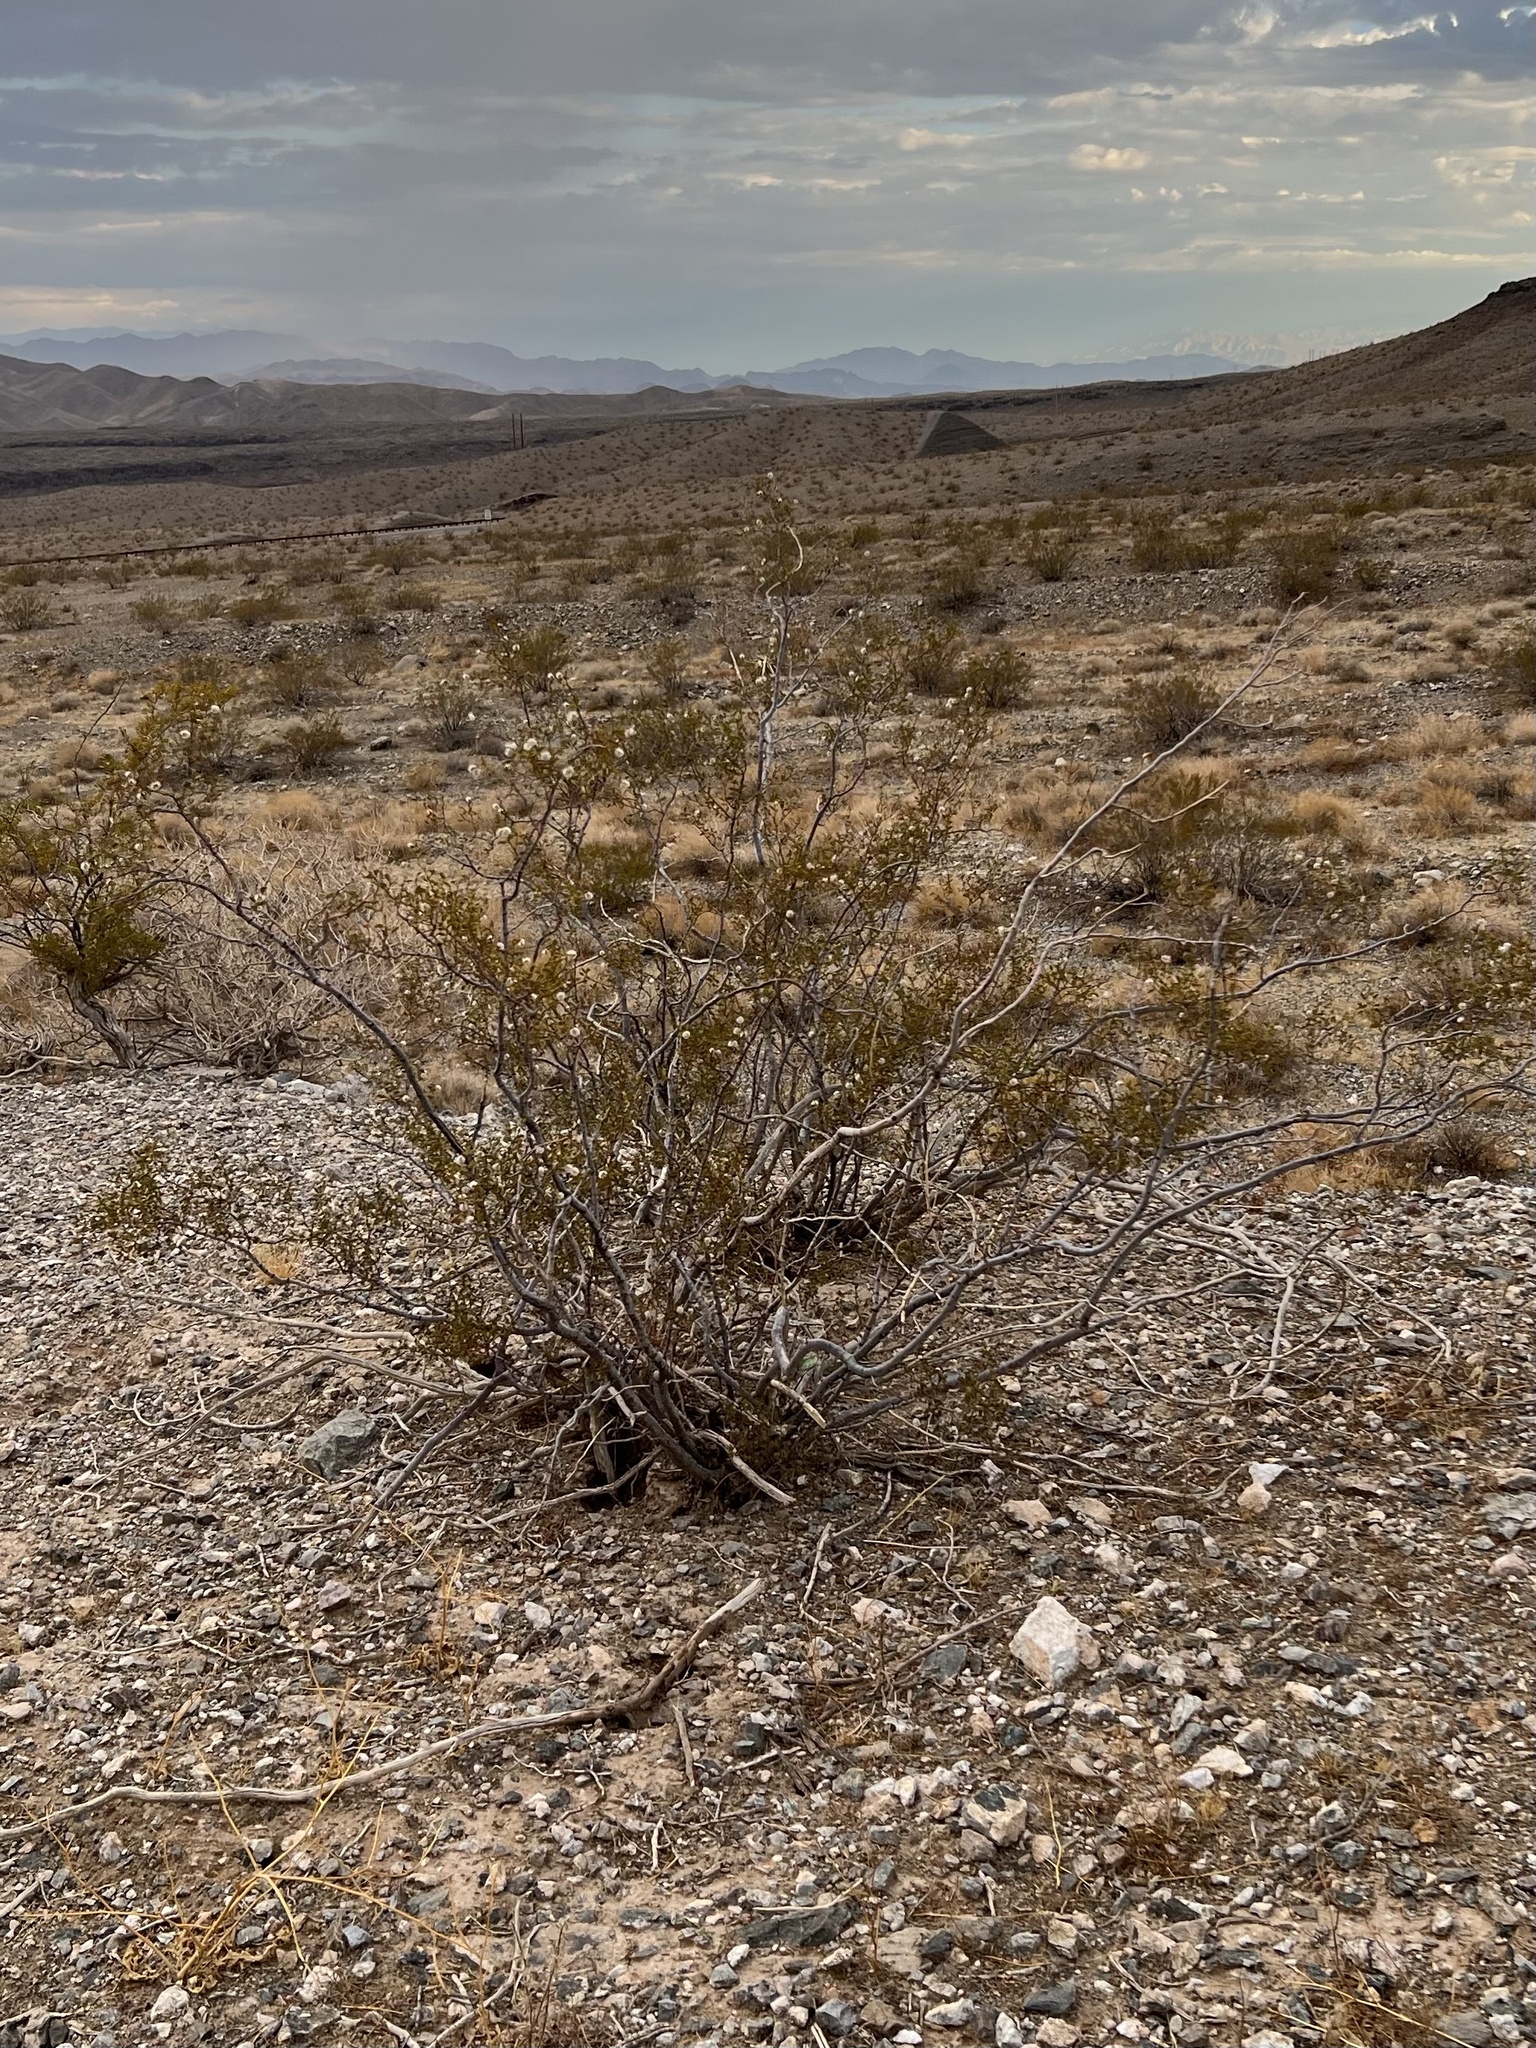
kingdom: Plantae
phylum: Tracheophyta
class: Magnoliopsida
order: Zygophyllales
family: Zygophyllaceae
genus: Larrea
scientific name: Larrea tridentata
